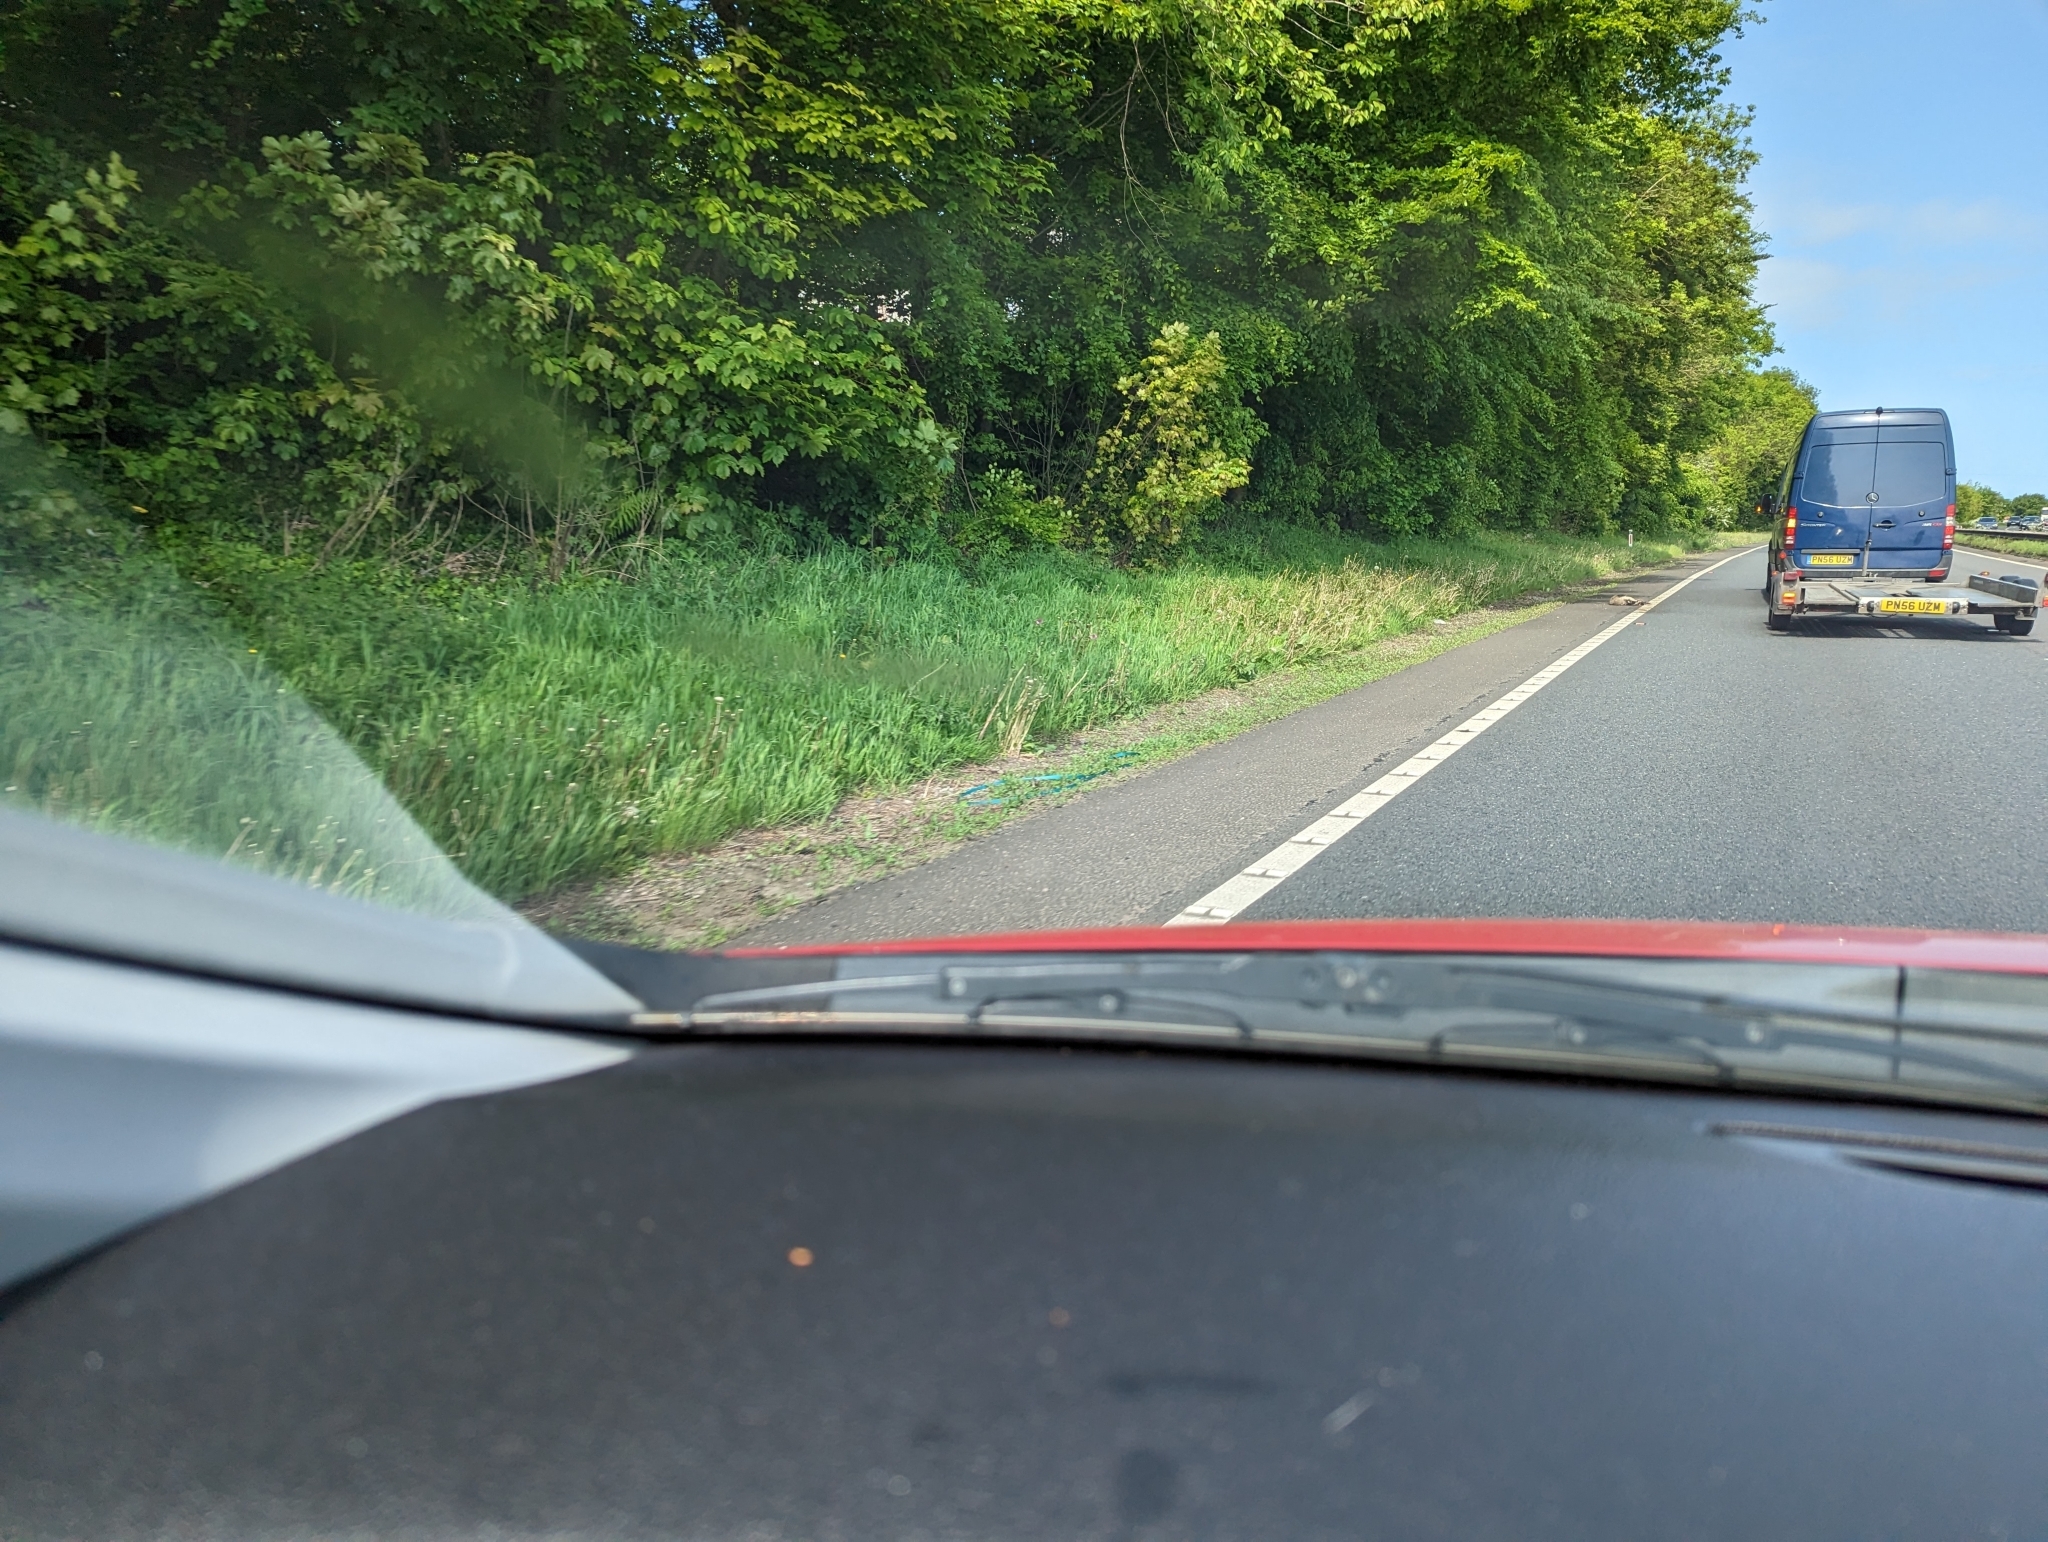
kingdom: Animalia
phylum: Chordata
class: Mammalia
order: Carnivora
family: Mustelidae
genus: Meles
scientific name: Meles meles
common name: Eurasian badger
